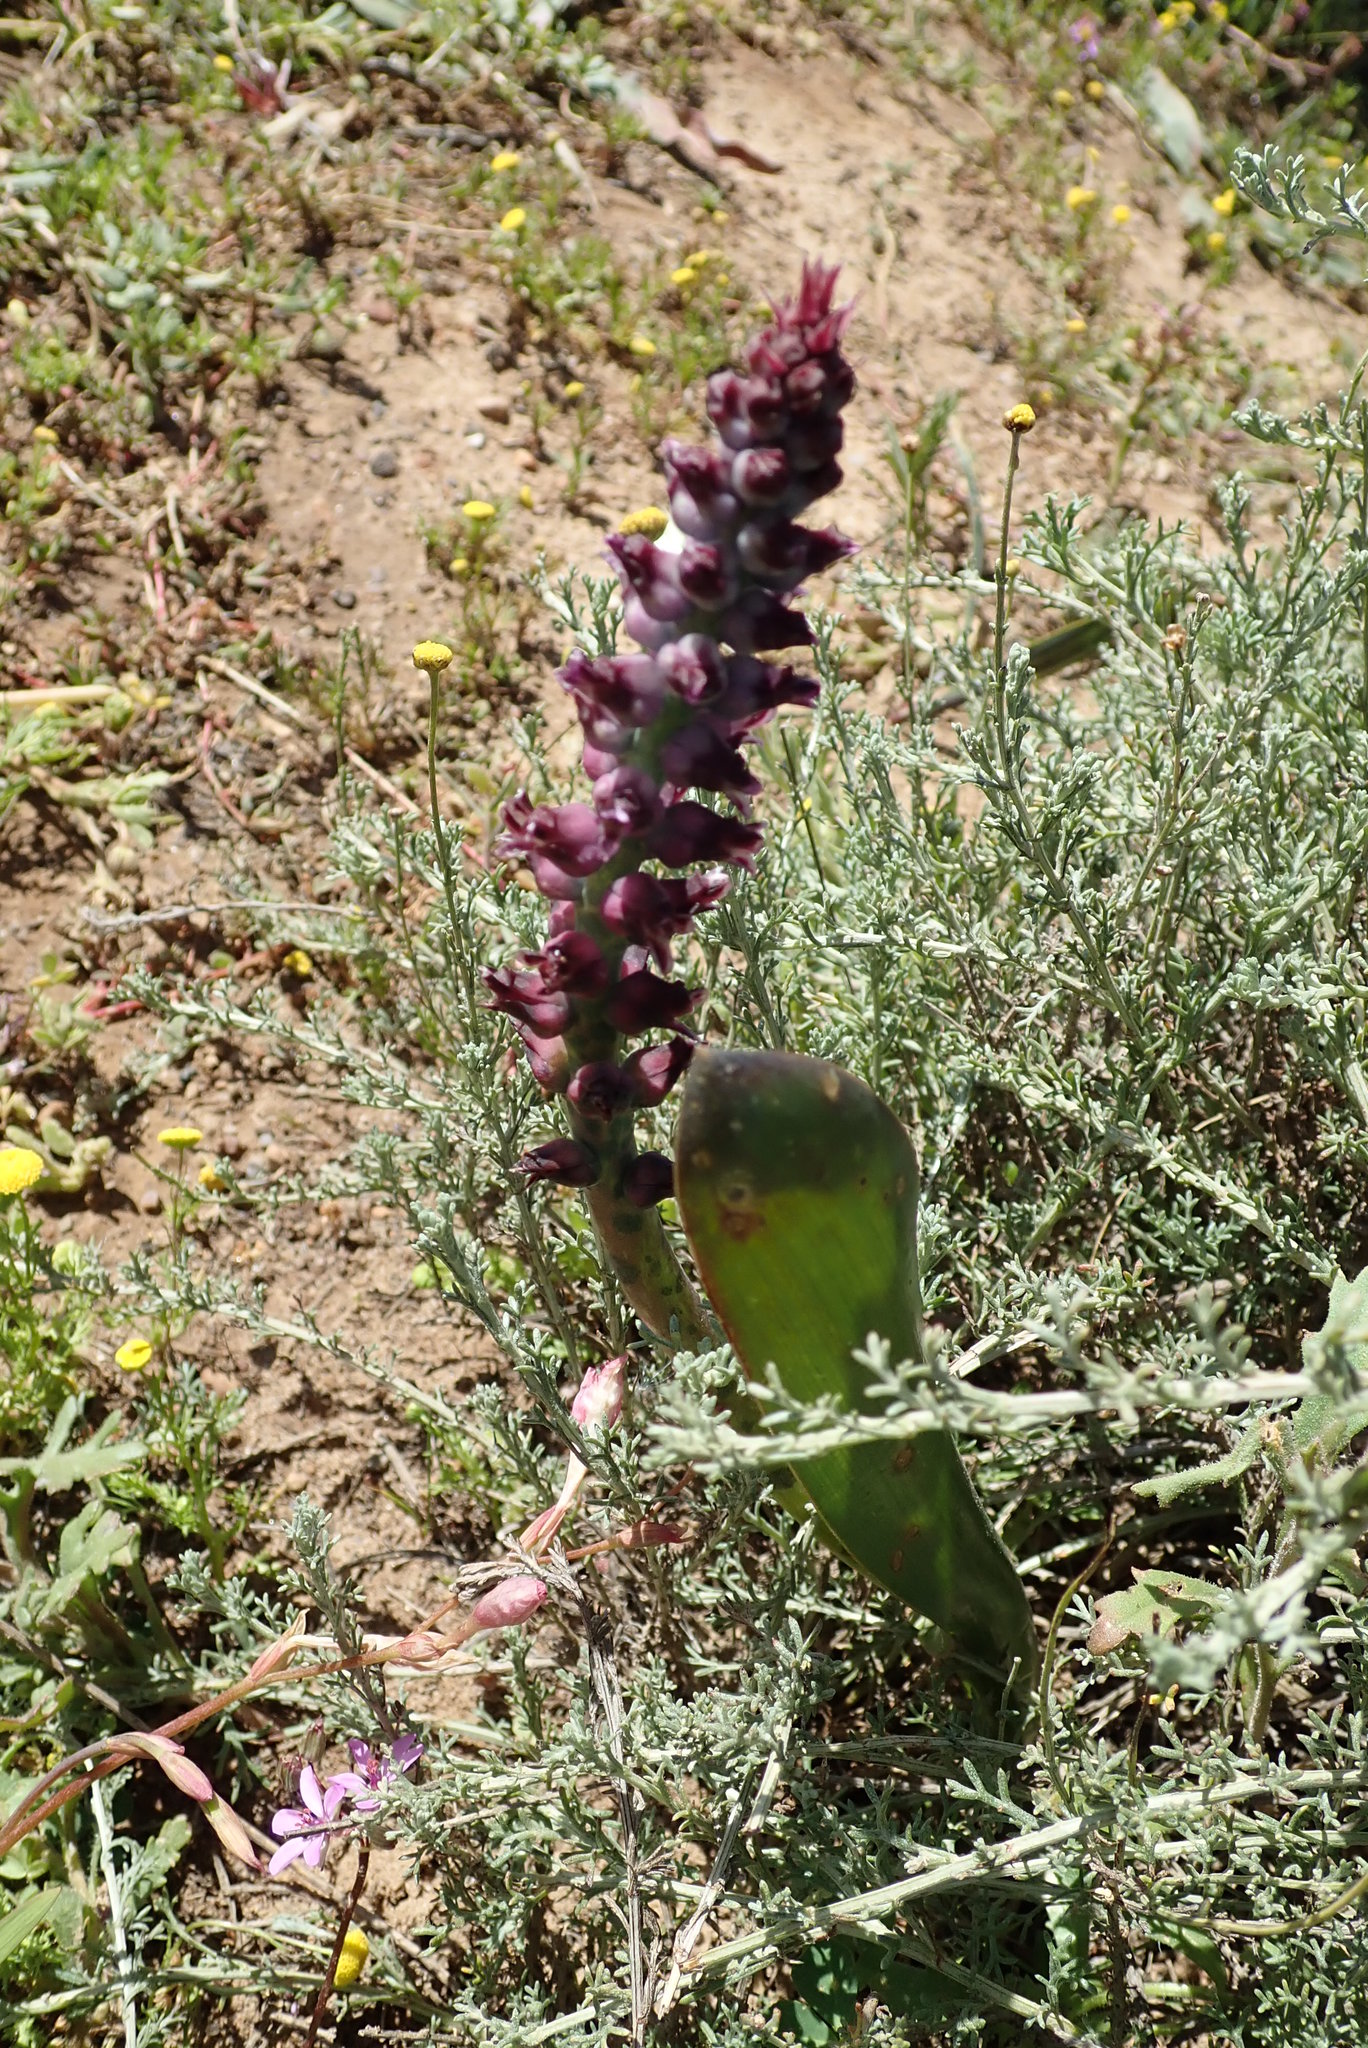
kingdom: Plantae
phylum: Tracheophyta
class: Liliopsida
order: Asparagales
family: Asparagaceae
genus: Lachenalia
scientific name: Lachenalia suaveolens
